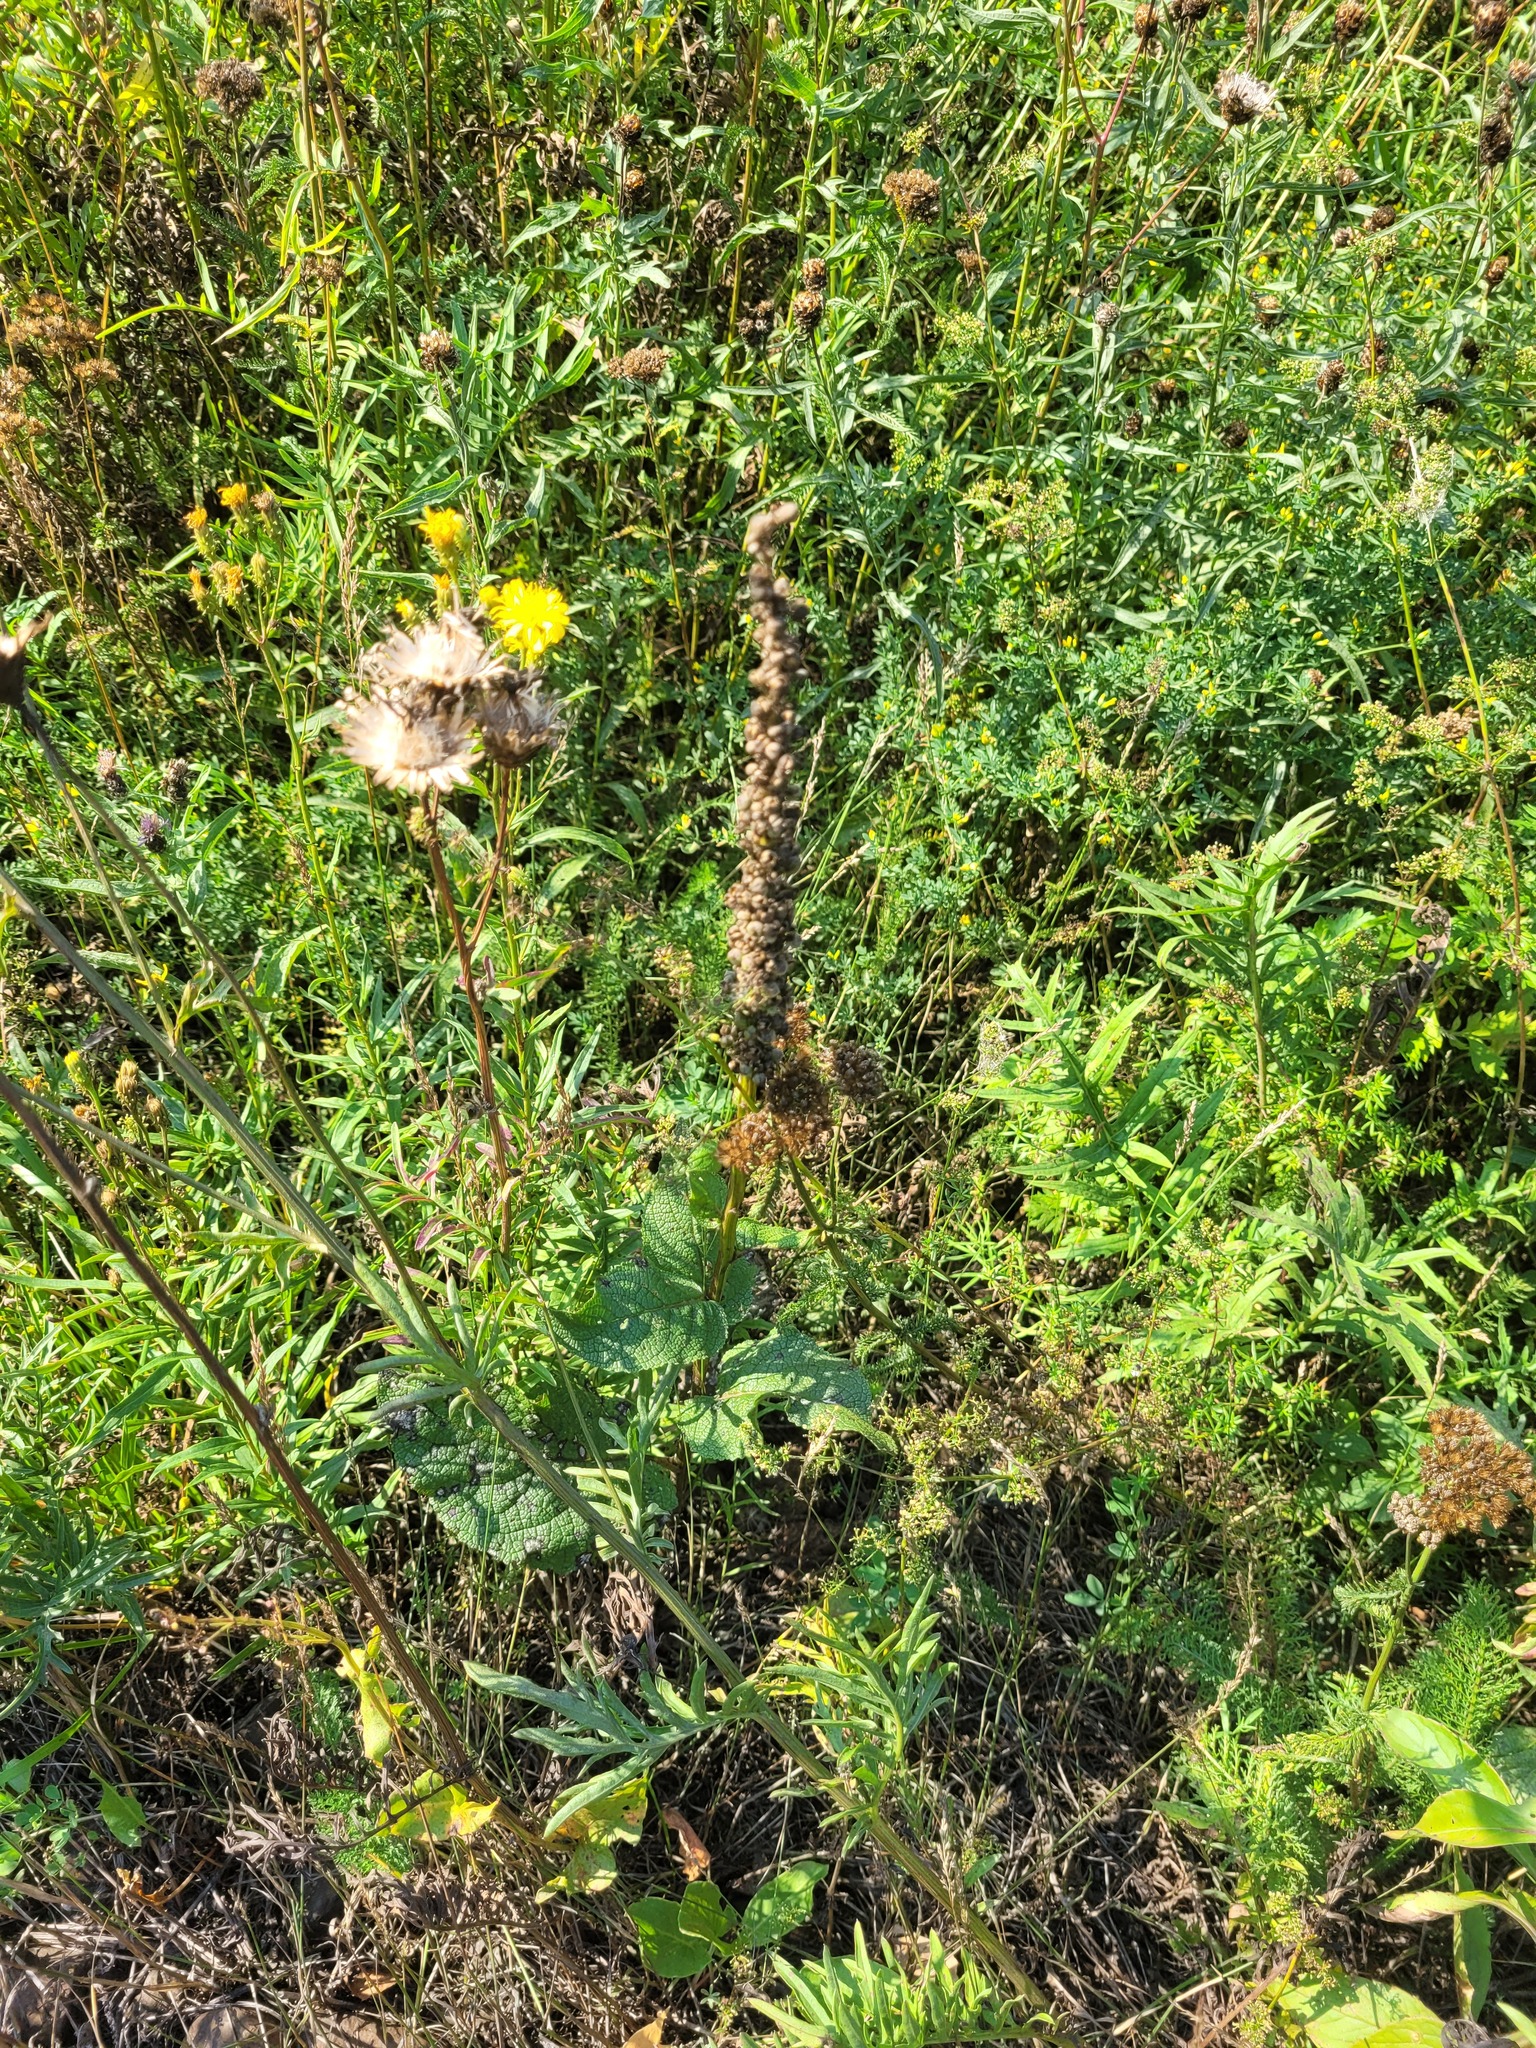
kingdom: Plantae
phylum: Tracheophyta
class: Magnoliopsida
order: Lamiales
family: Scrophulariaceae
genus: Verbascum
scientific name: Verbascum nigrum
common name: Dark mullein
